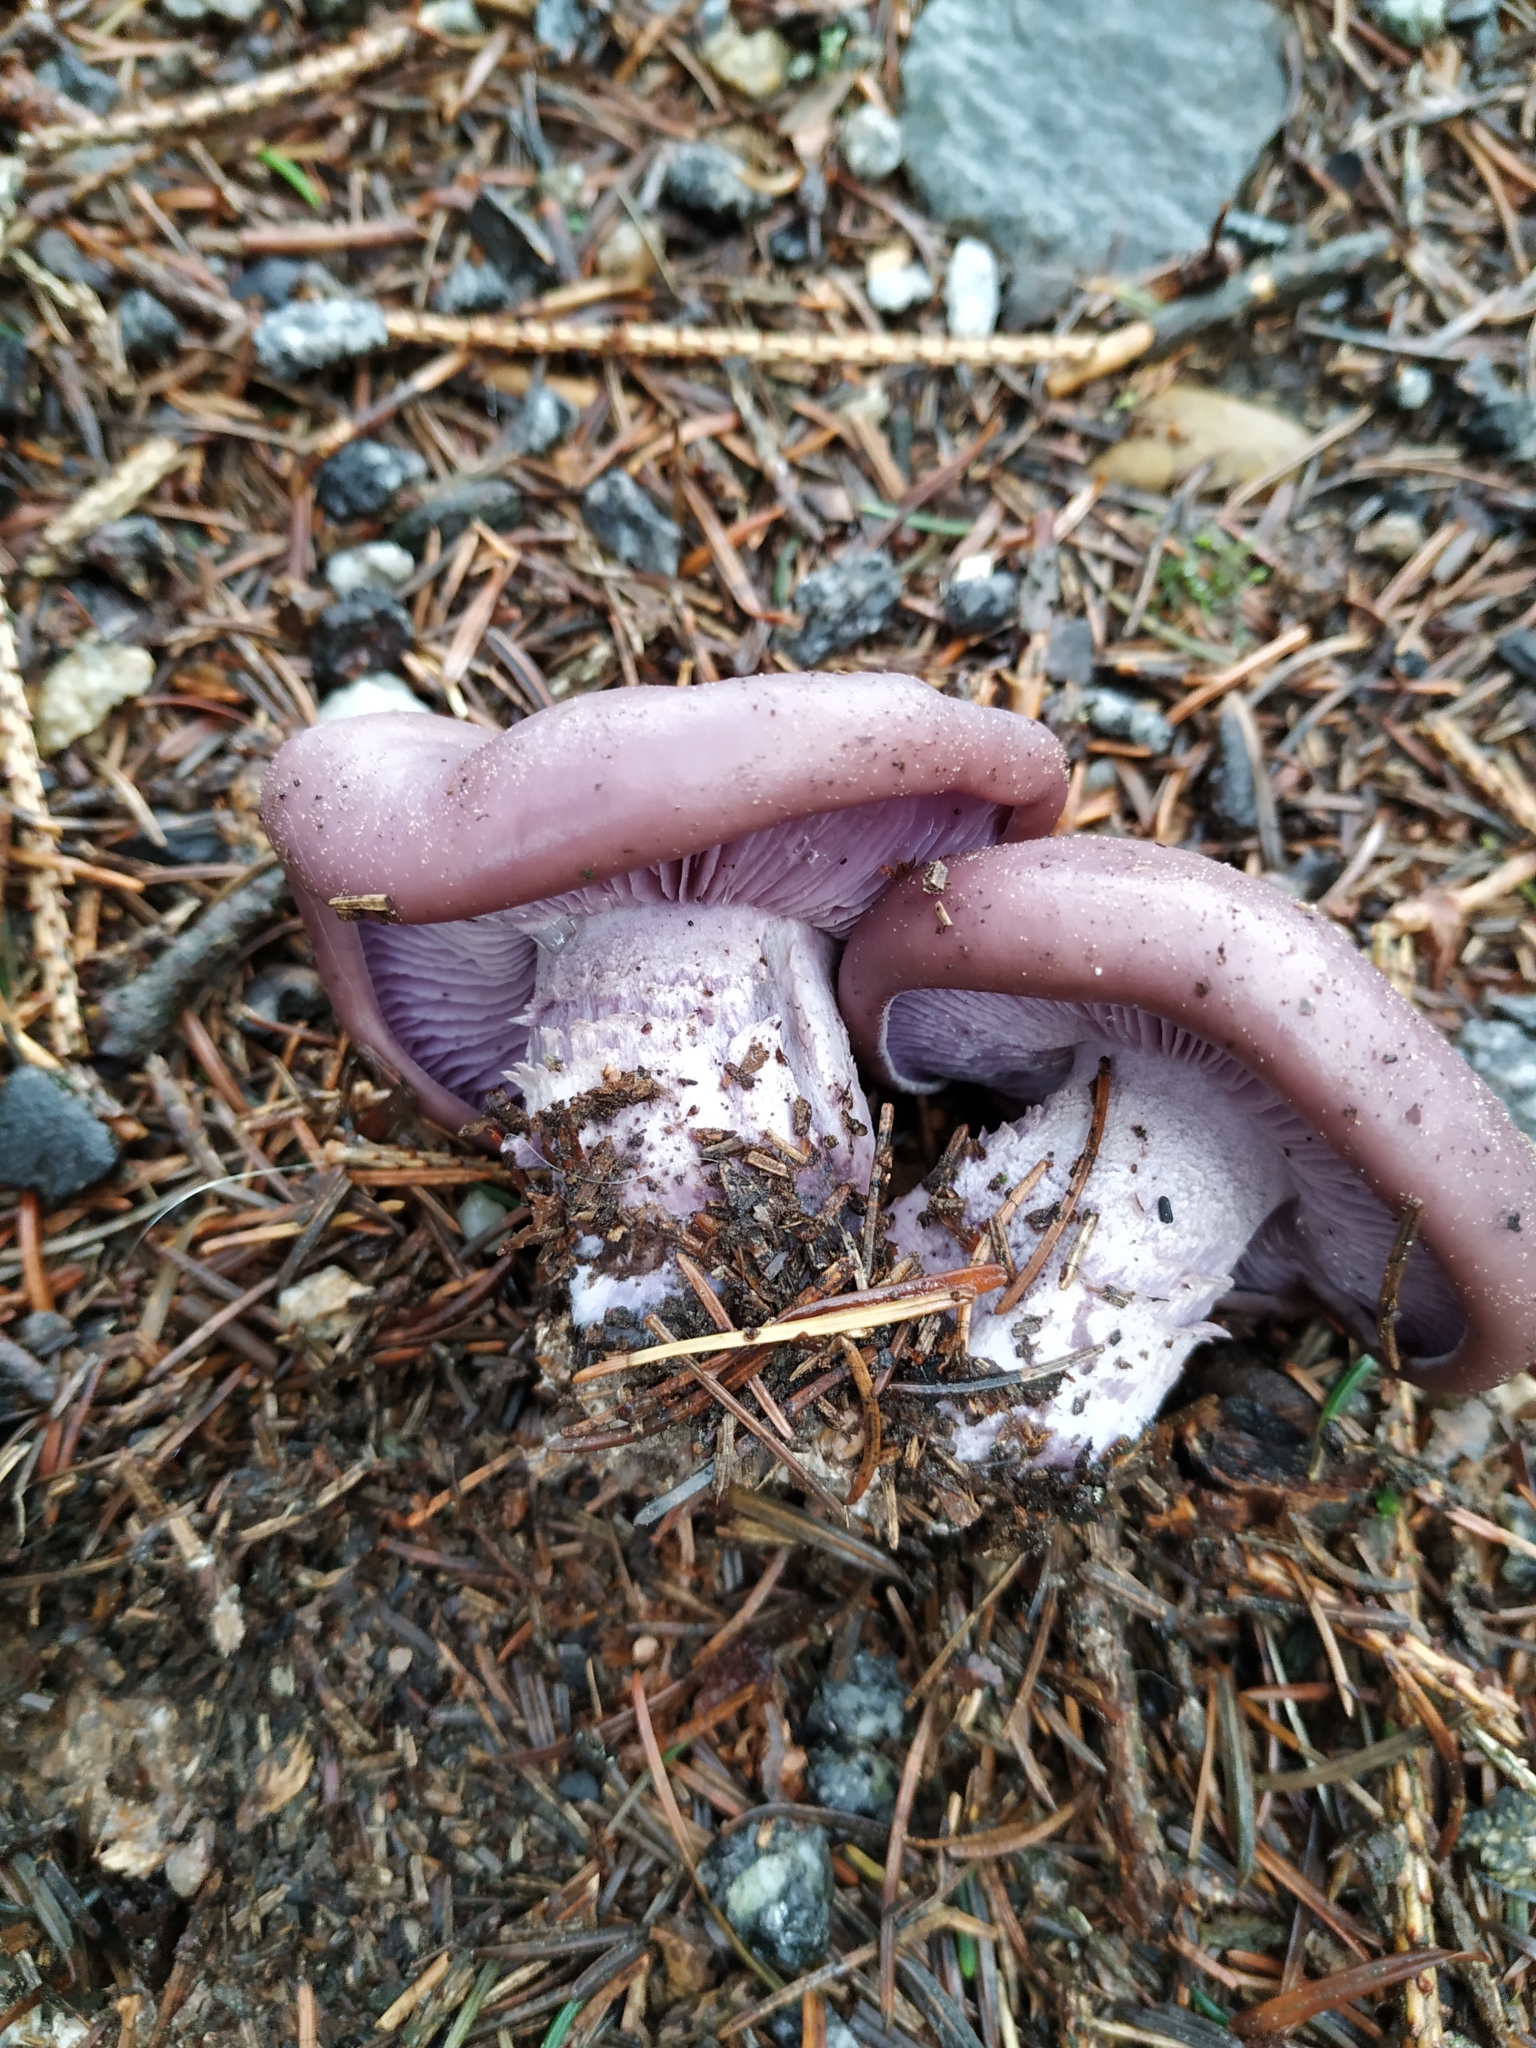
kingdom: Fungi
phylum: Basidiomycota
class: Agaricomycetes
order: Agaricales
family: Tricholomataceae
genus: Collybia
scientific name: Collybia
